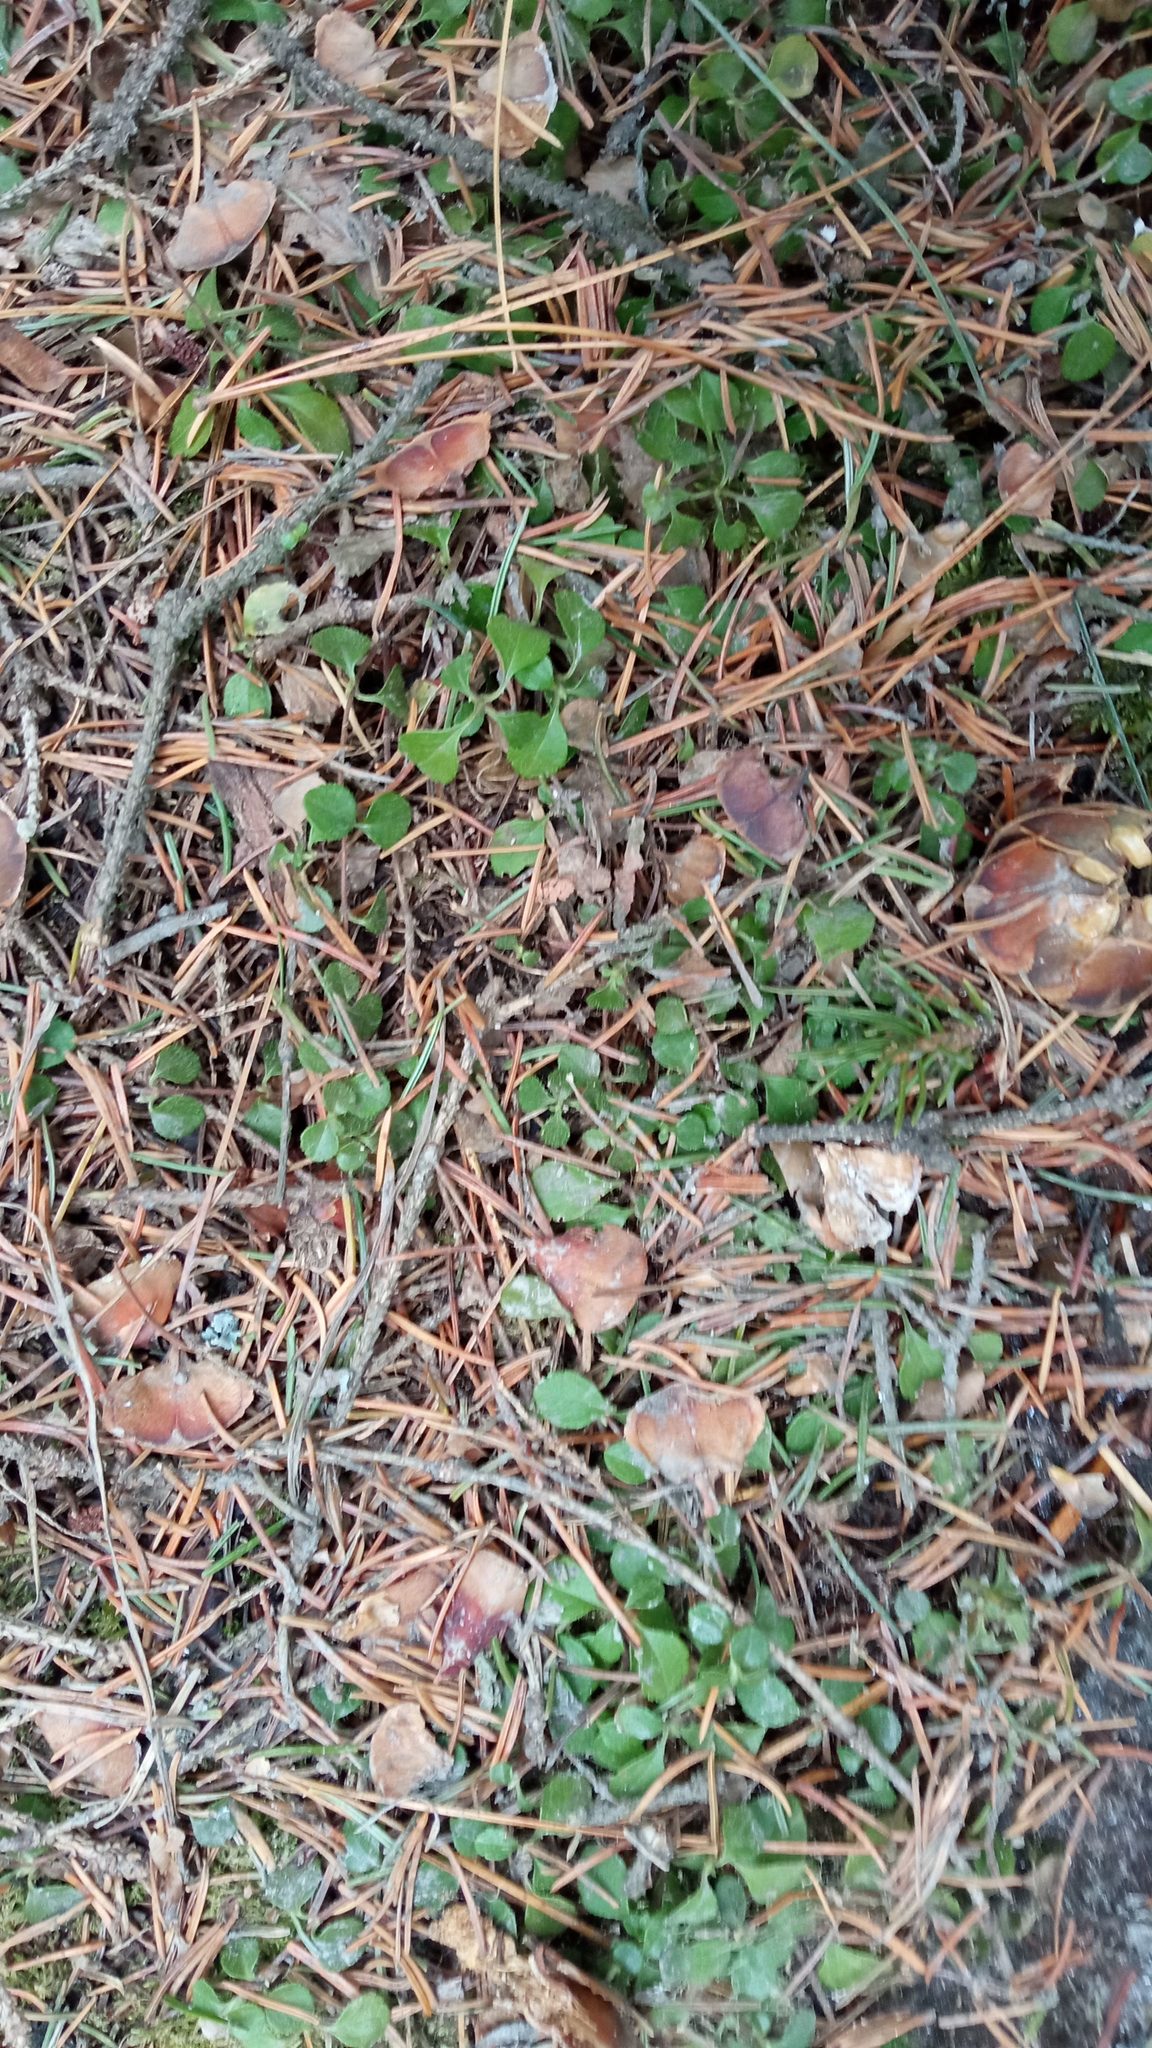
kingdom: Plantae
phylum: Tracheophyta
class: Magnoliopsida
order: Dipsacales
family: Caprifoliaceae
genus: Linnaea
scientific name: Linnaea borealis
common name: Twinflower
